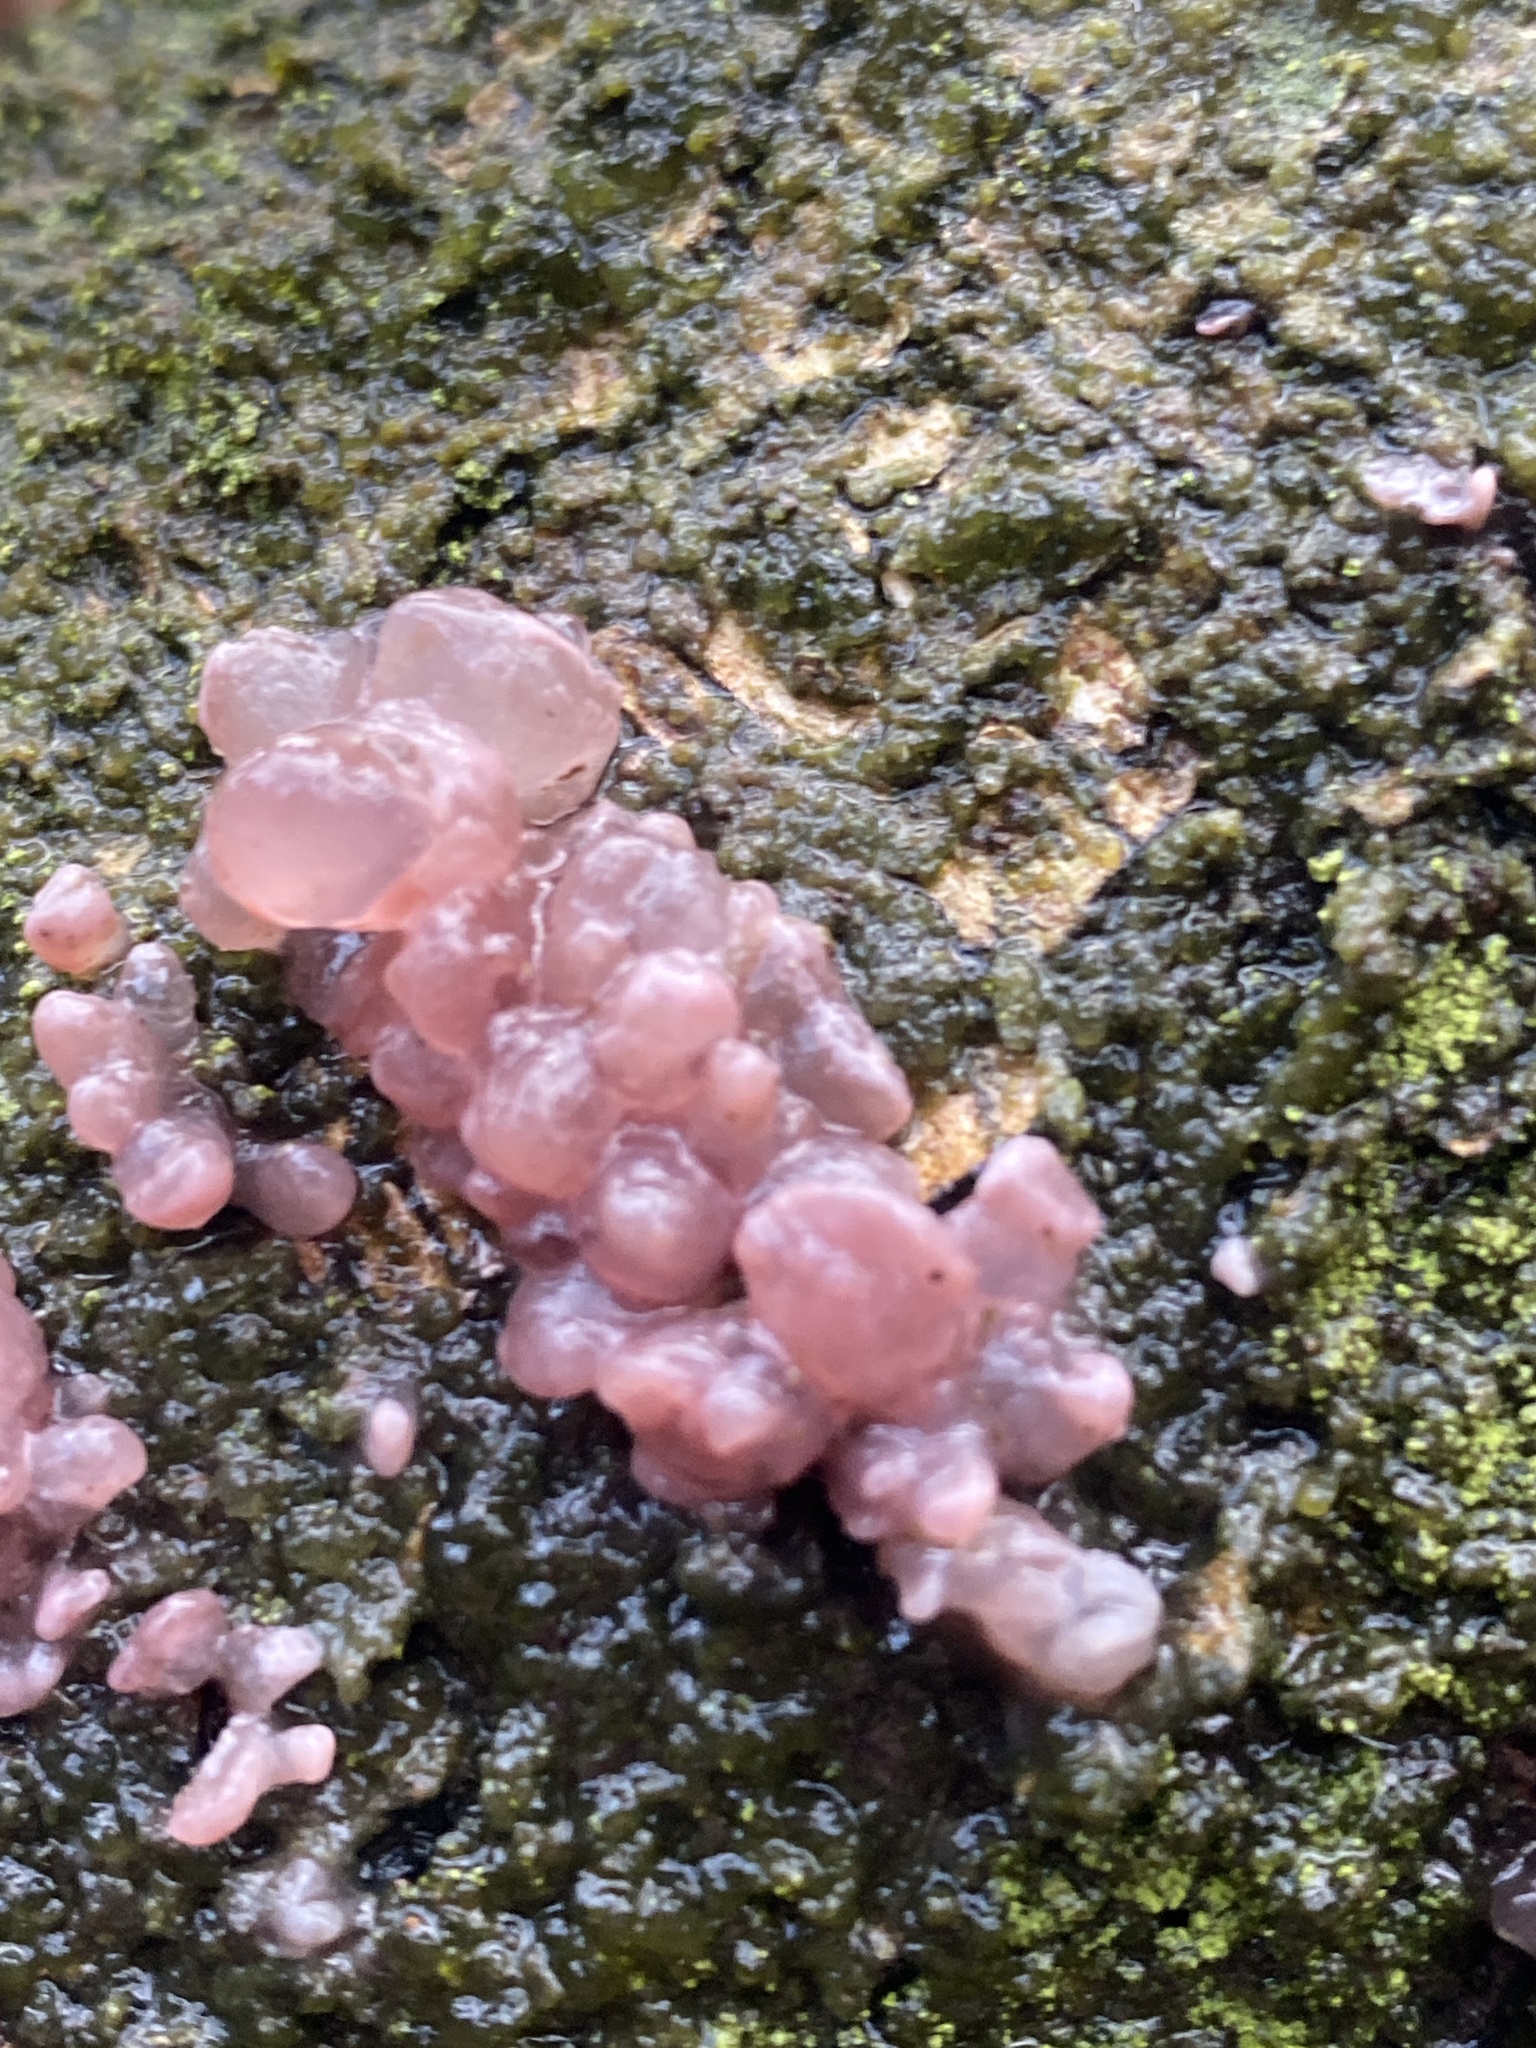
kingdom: Fungi
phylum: Ascomycota
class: Leotiomycetes
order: Helotiales
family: Gelatinodiscaceae
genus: Ascocoryne
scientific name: Ascocoryne sarcoides
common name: Purple jellydisc
